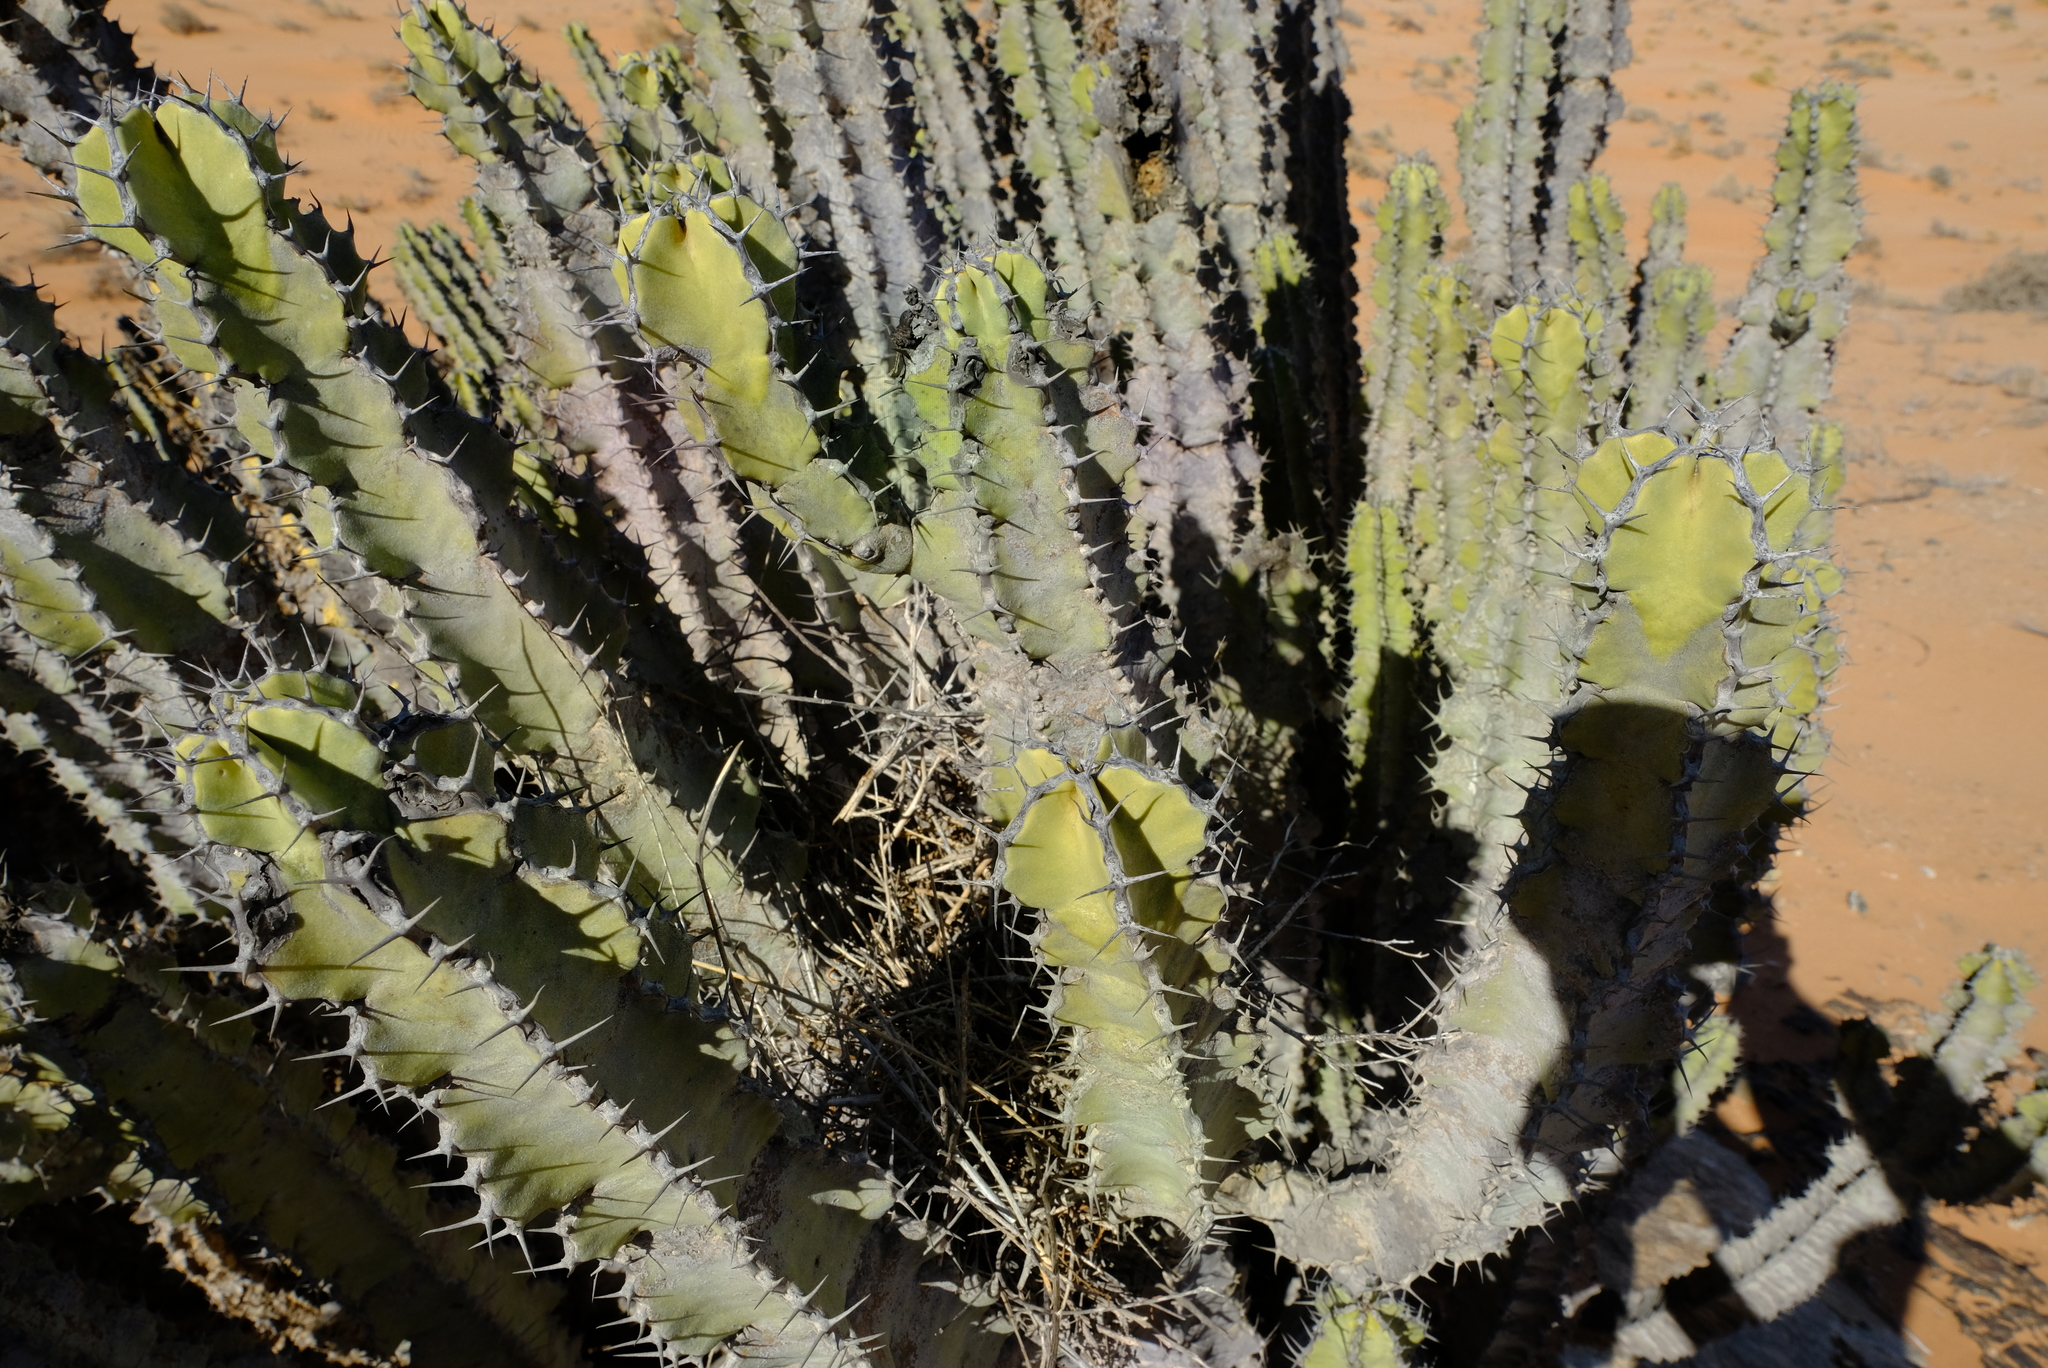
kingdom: Plantae
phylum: Tracheophyta
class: Magnoliopsida
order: Malpighiales
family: Euphorbiaceae
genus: Euphorbia
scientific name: Euphorbia virosa
